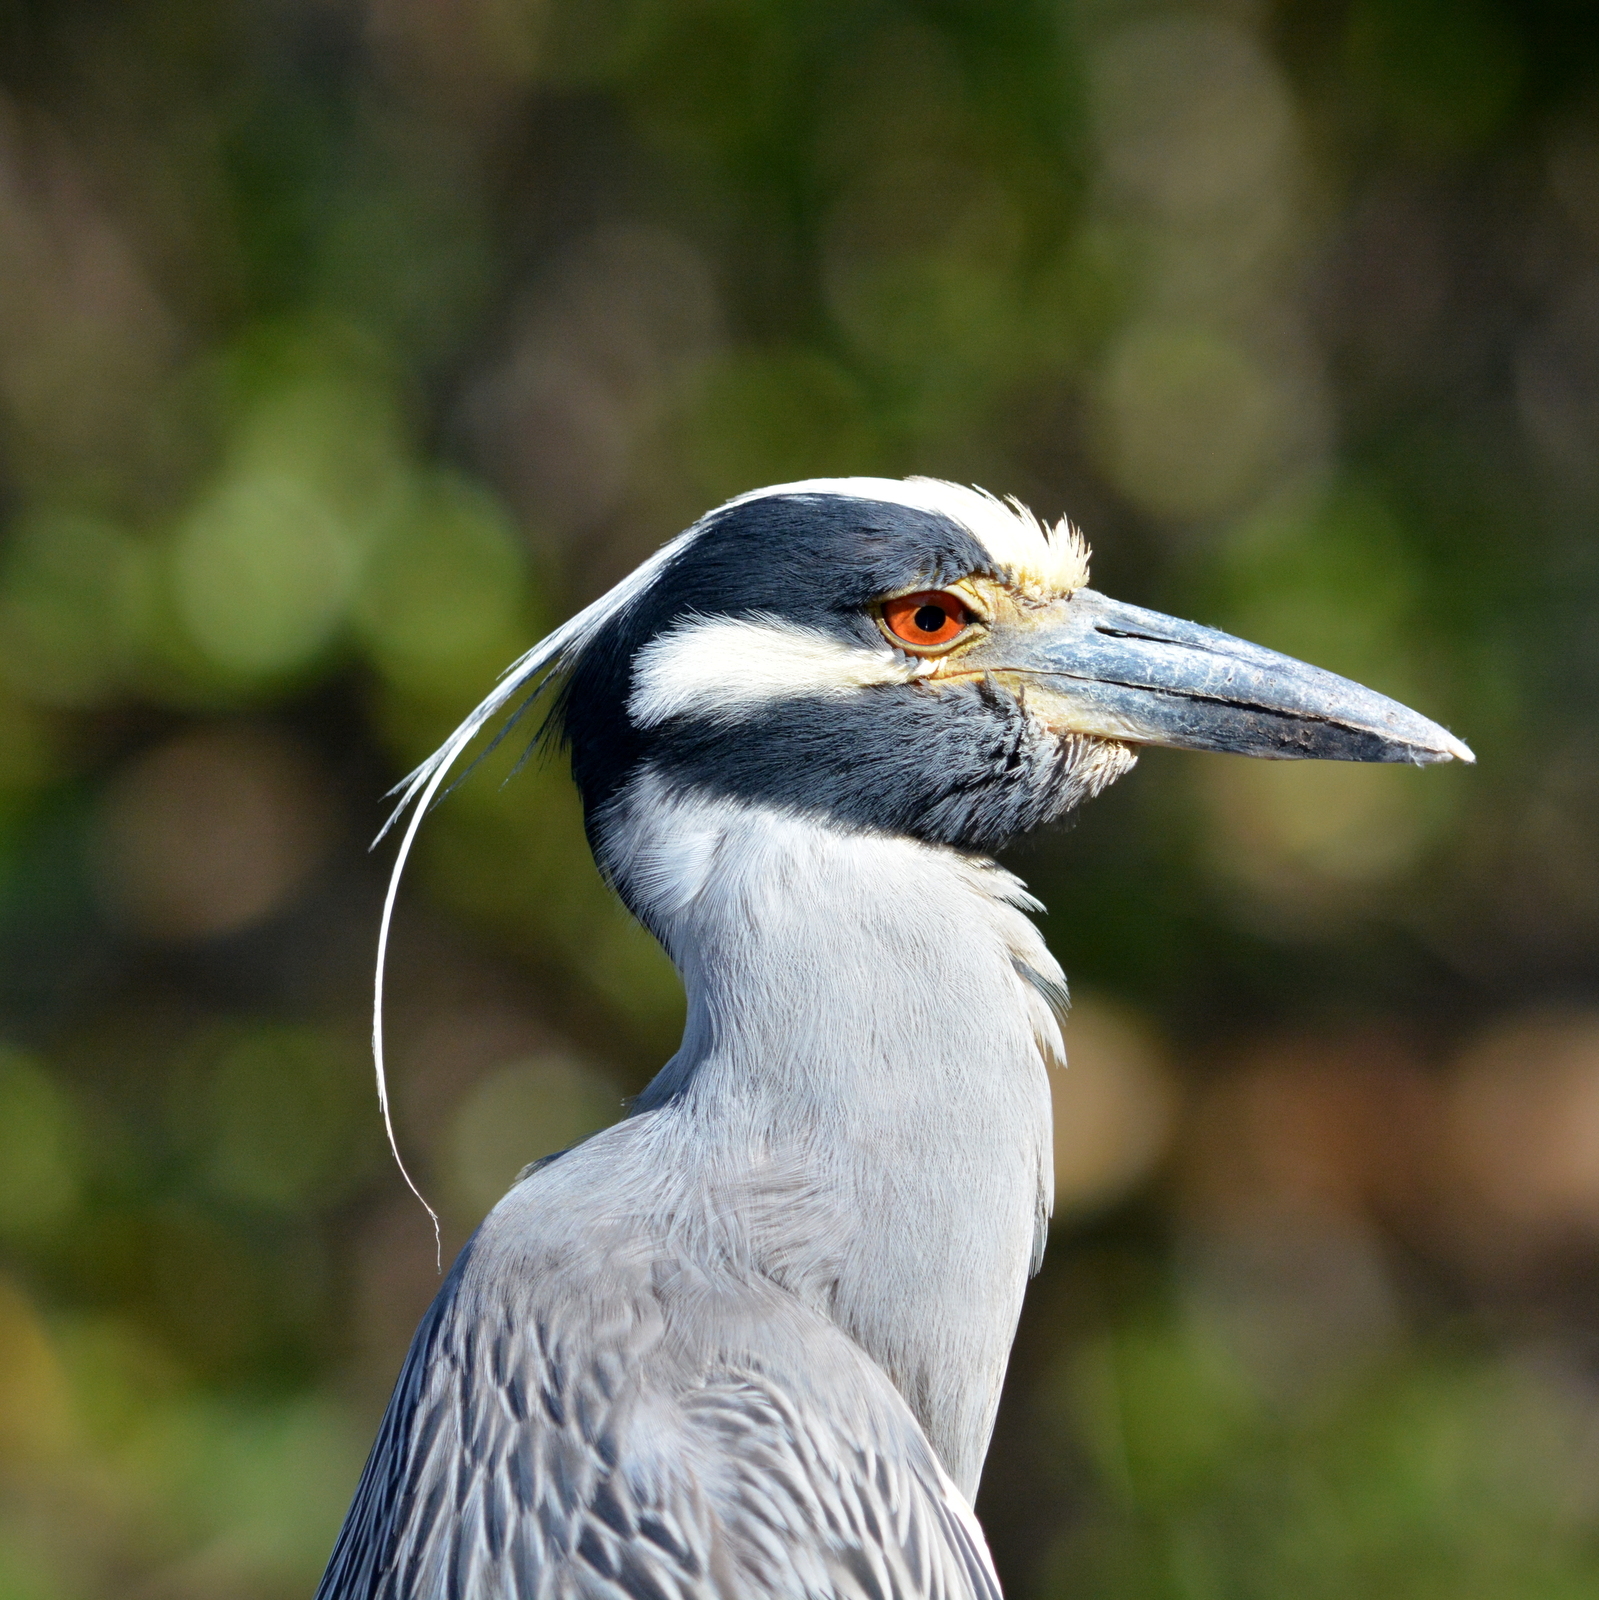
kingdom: Animalia
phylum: Chordata
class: Aves
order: Pelecaniformes
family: Ardeidae
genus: Nyctanassa
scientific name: Nyctanassa violacea
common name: Yellow-crowned night heron
